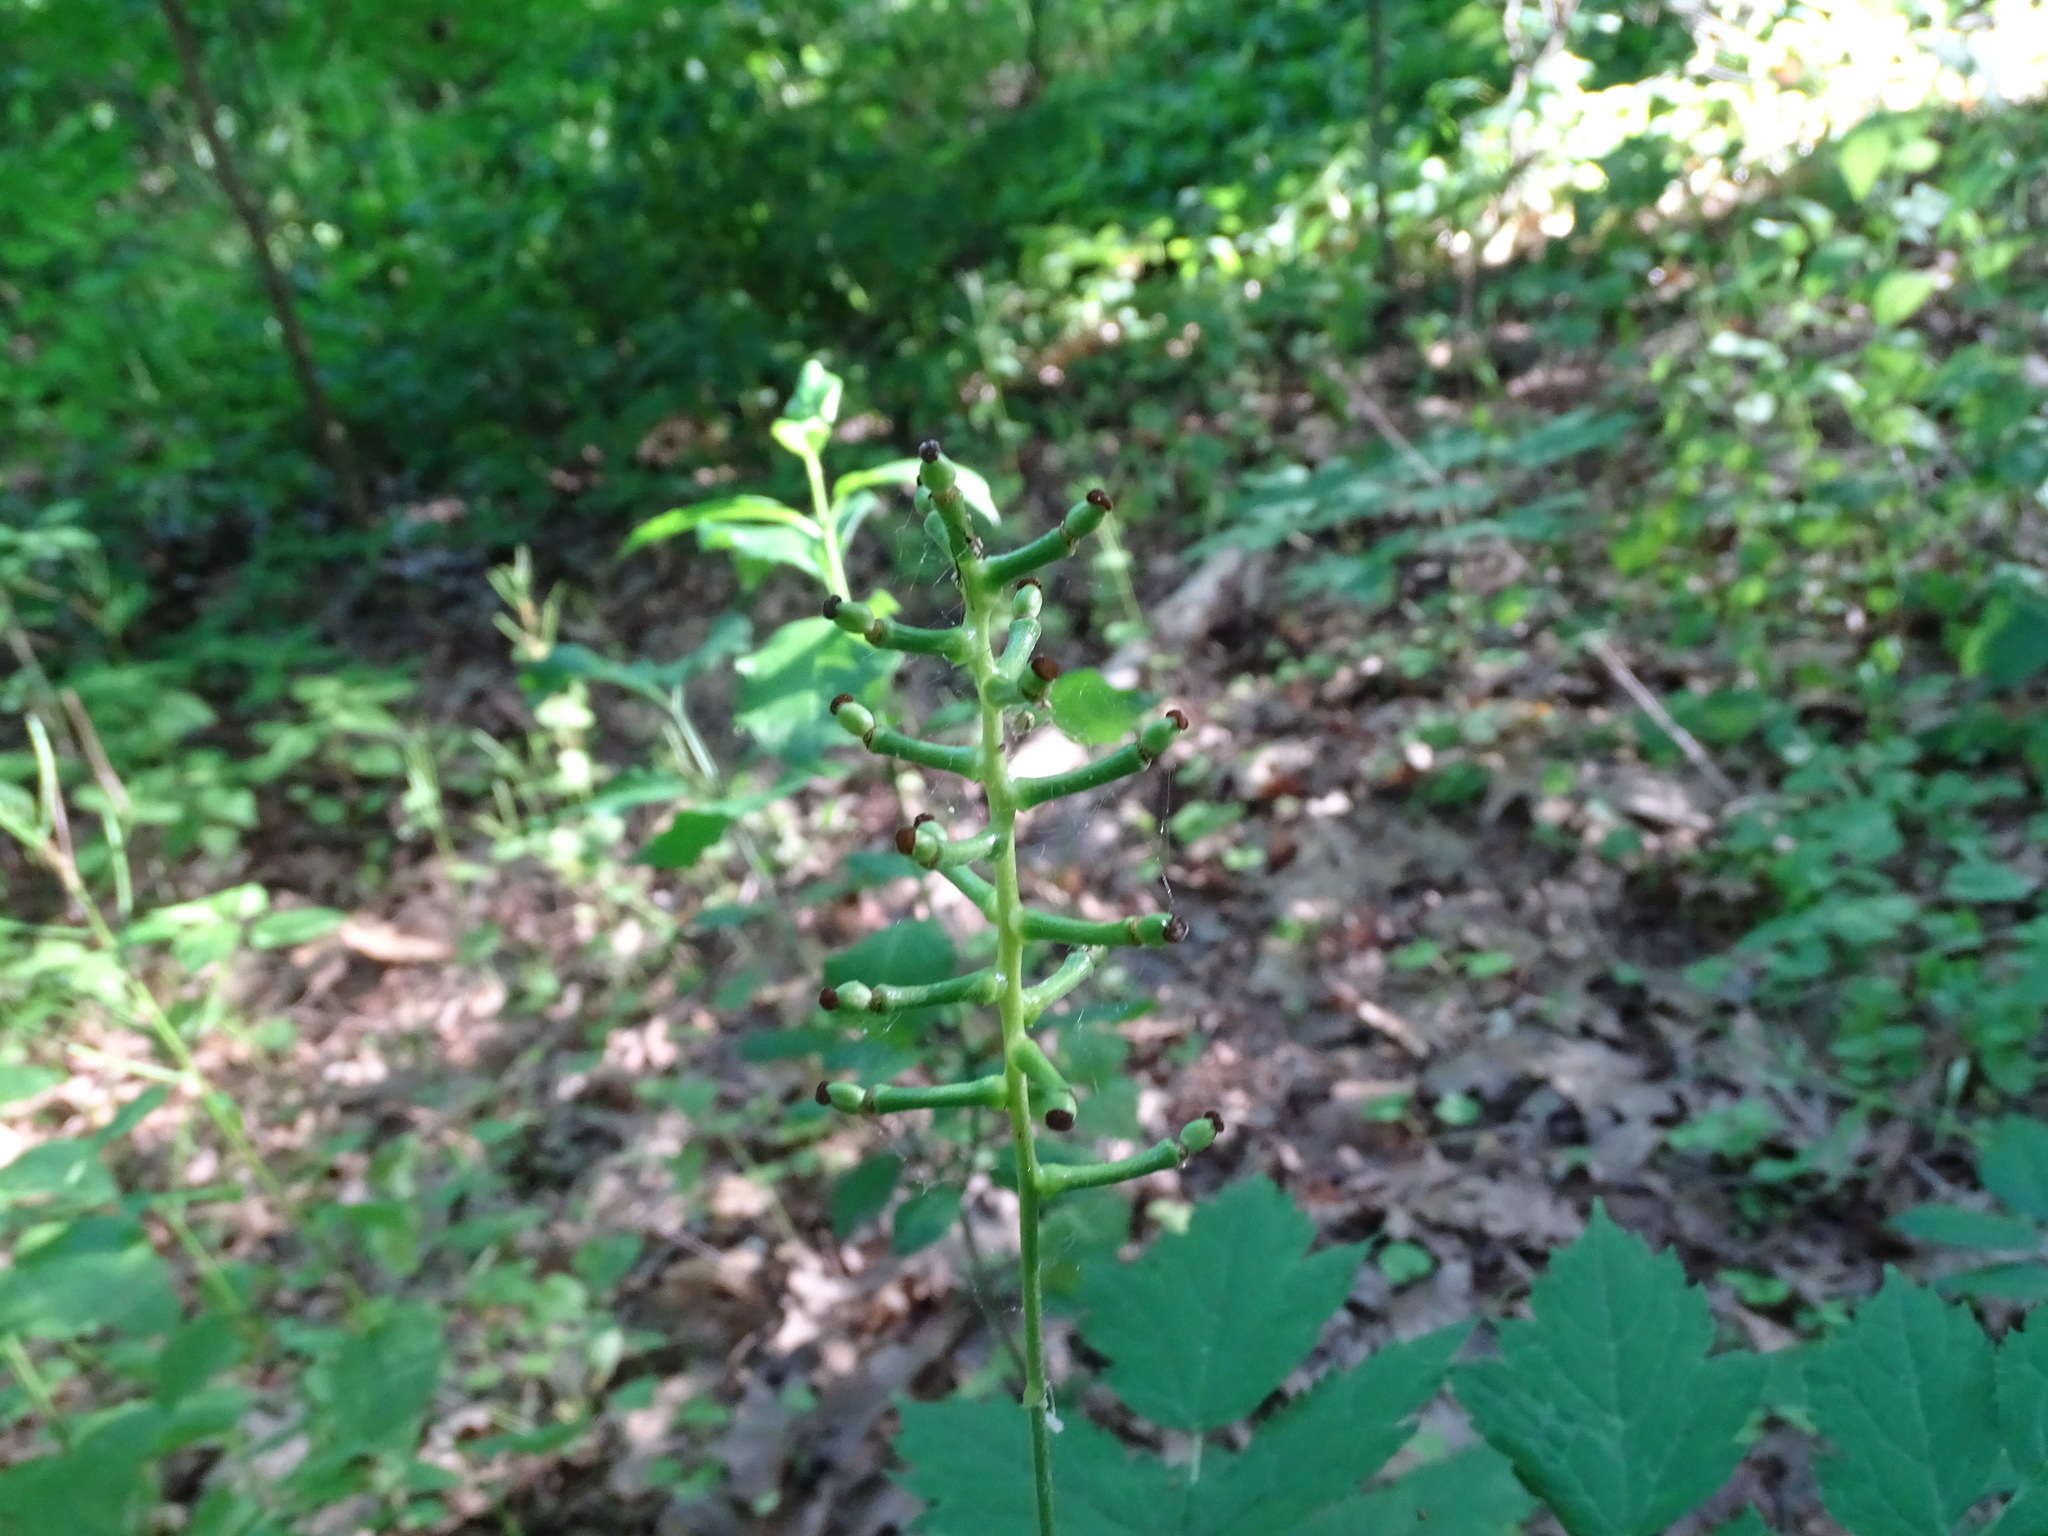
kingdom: Plantae
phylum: Tracheophyta
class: Magnoliopsida
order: Ranunculales
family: Ranunculaceae
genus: Actaea
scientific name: Actaea pachypoda
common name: Doll's-eyes
